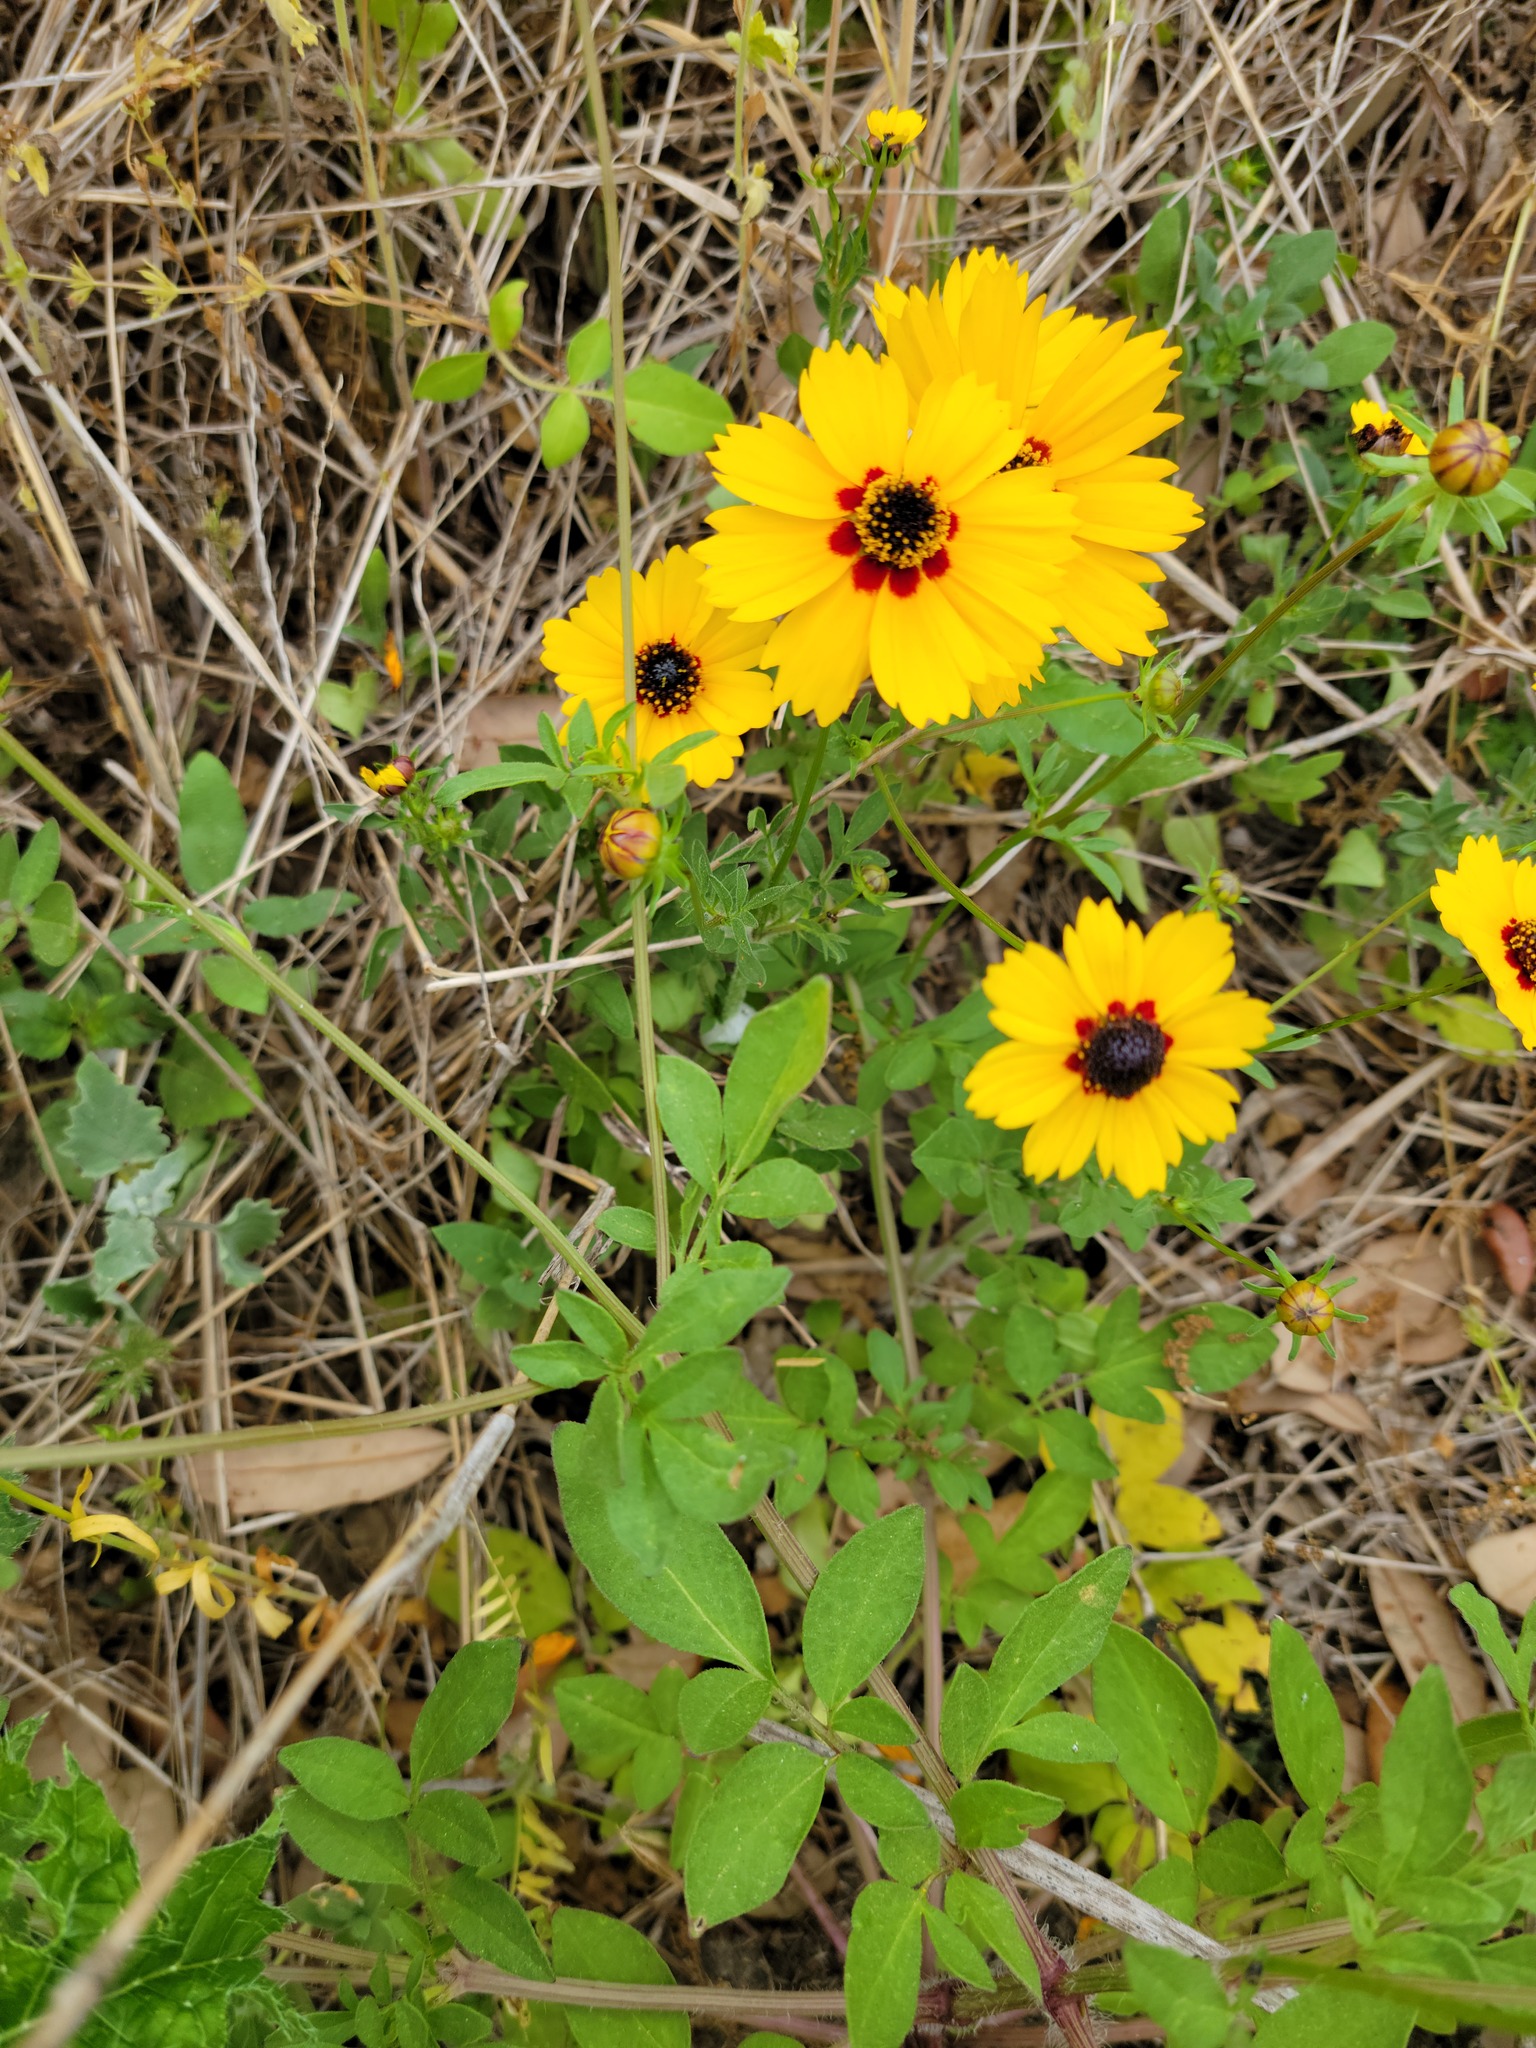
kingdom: Plantae
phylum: Tracheophyta
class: Magnoliopsida
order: Asterales
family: Asteraceae
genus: Coreopsis
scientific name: Coreopsis basalis
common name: Golden-mane coreopsis
